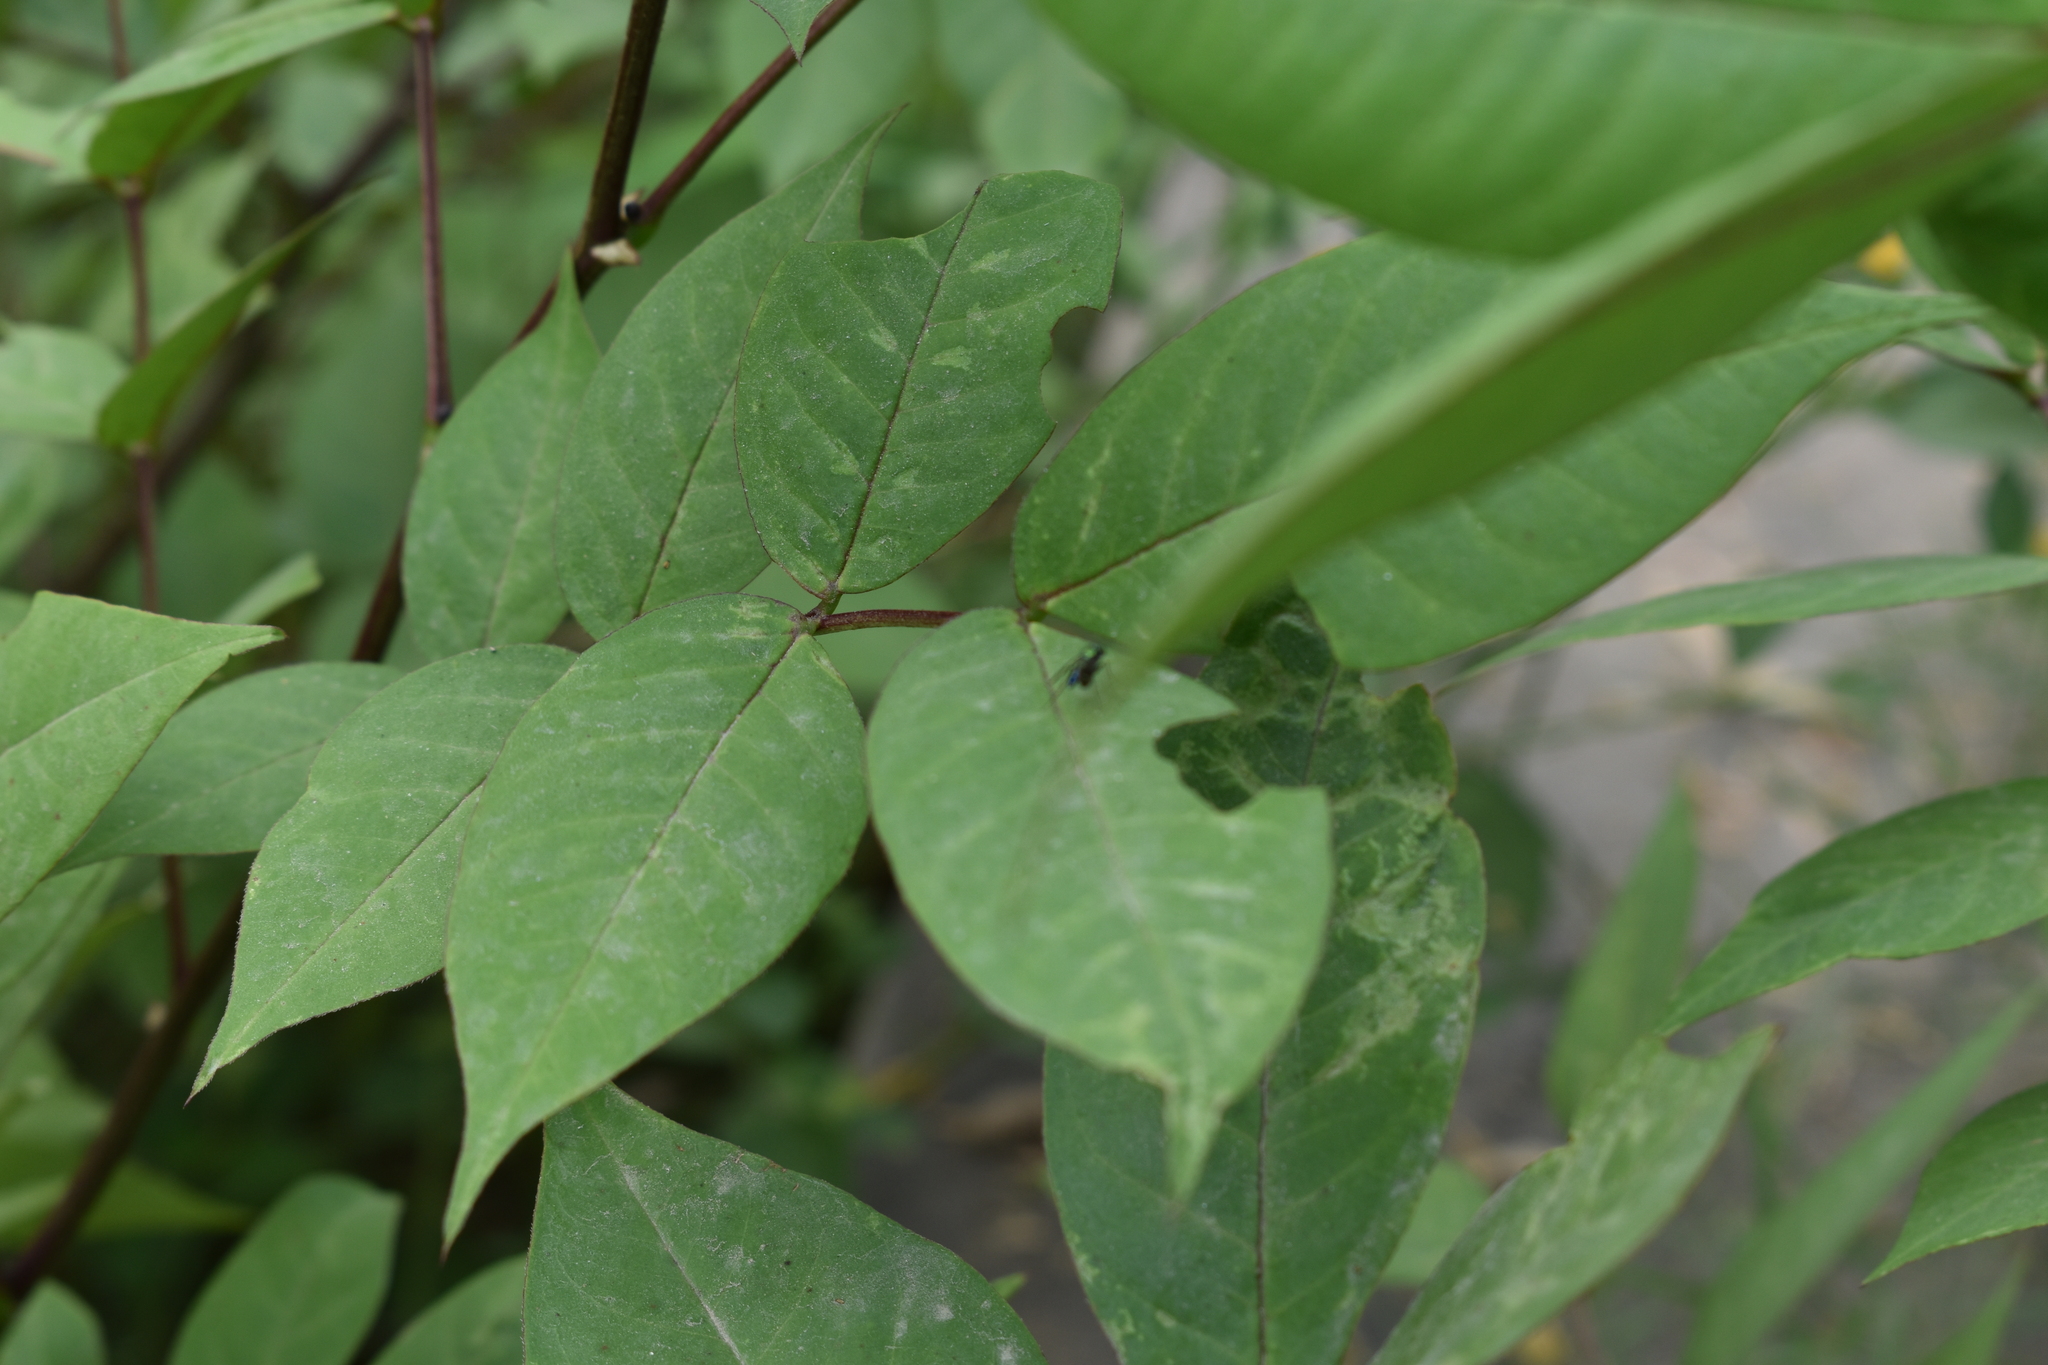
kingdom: Plantae
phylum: Tracheophyta
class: Magnoliopsida
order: Fabales
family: Fabaceae
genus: Senna
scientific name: Senna occidentalis
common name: Septicweed
